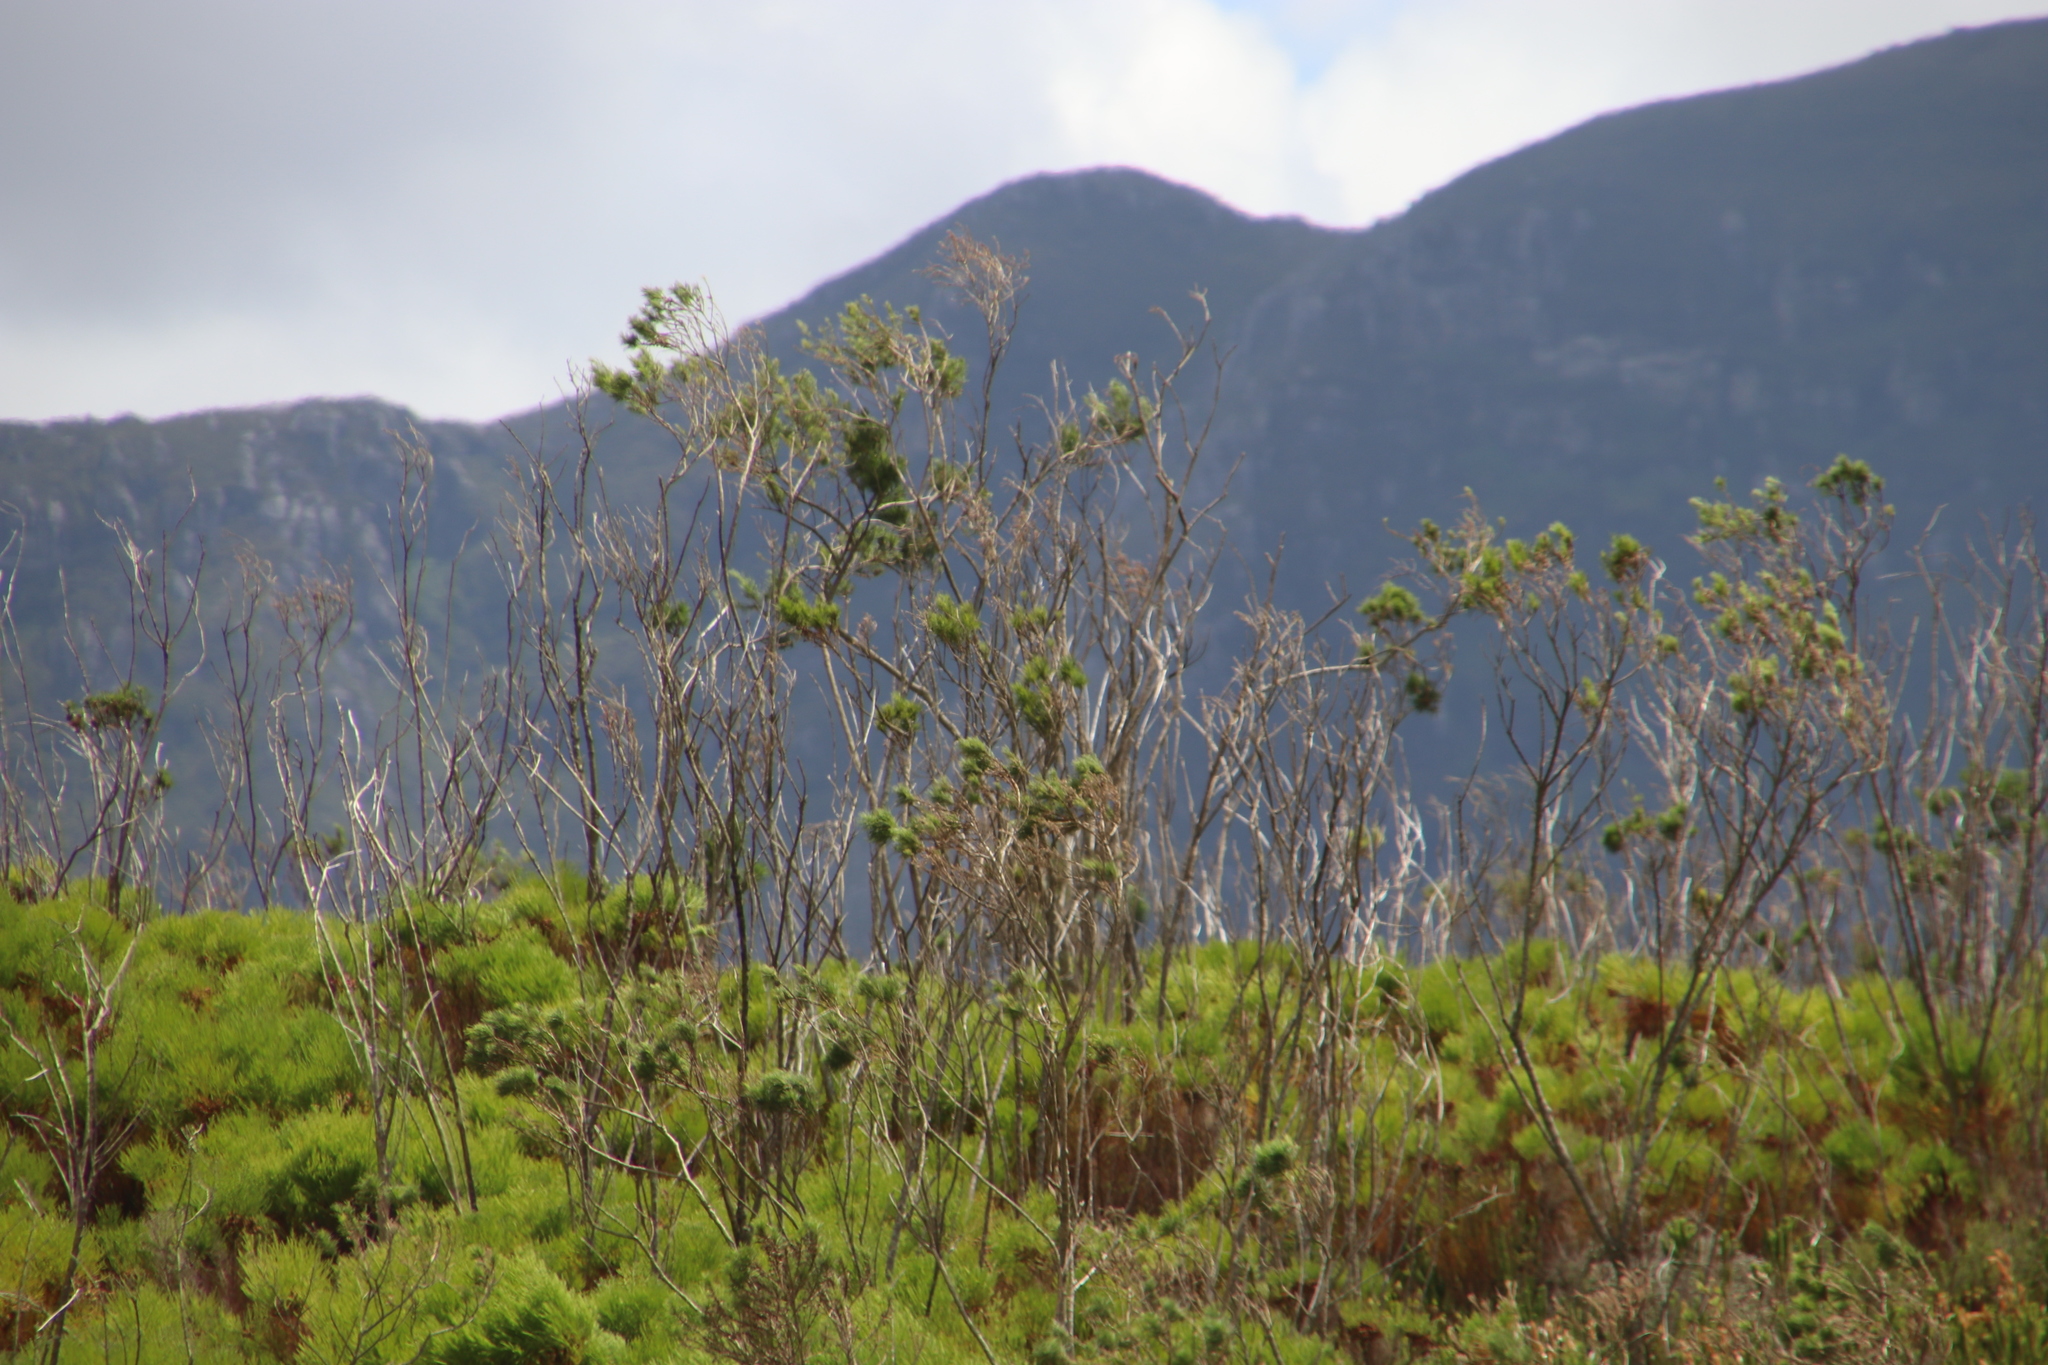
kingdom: Plantae
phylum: Tracheophyta
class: Magnoliopsida
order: Fabales
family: Fabaceae
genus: Psoralea
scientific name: Psoralea pinnata
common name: African scurfpea
